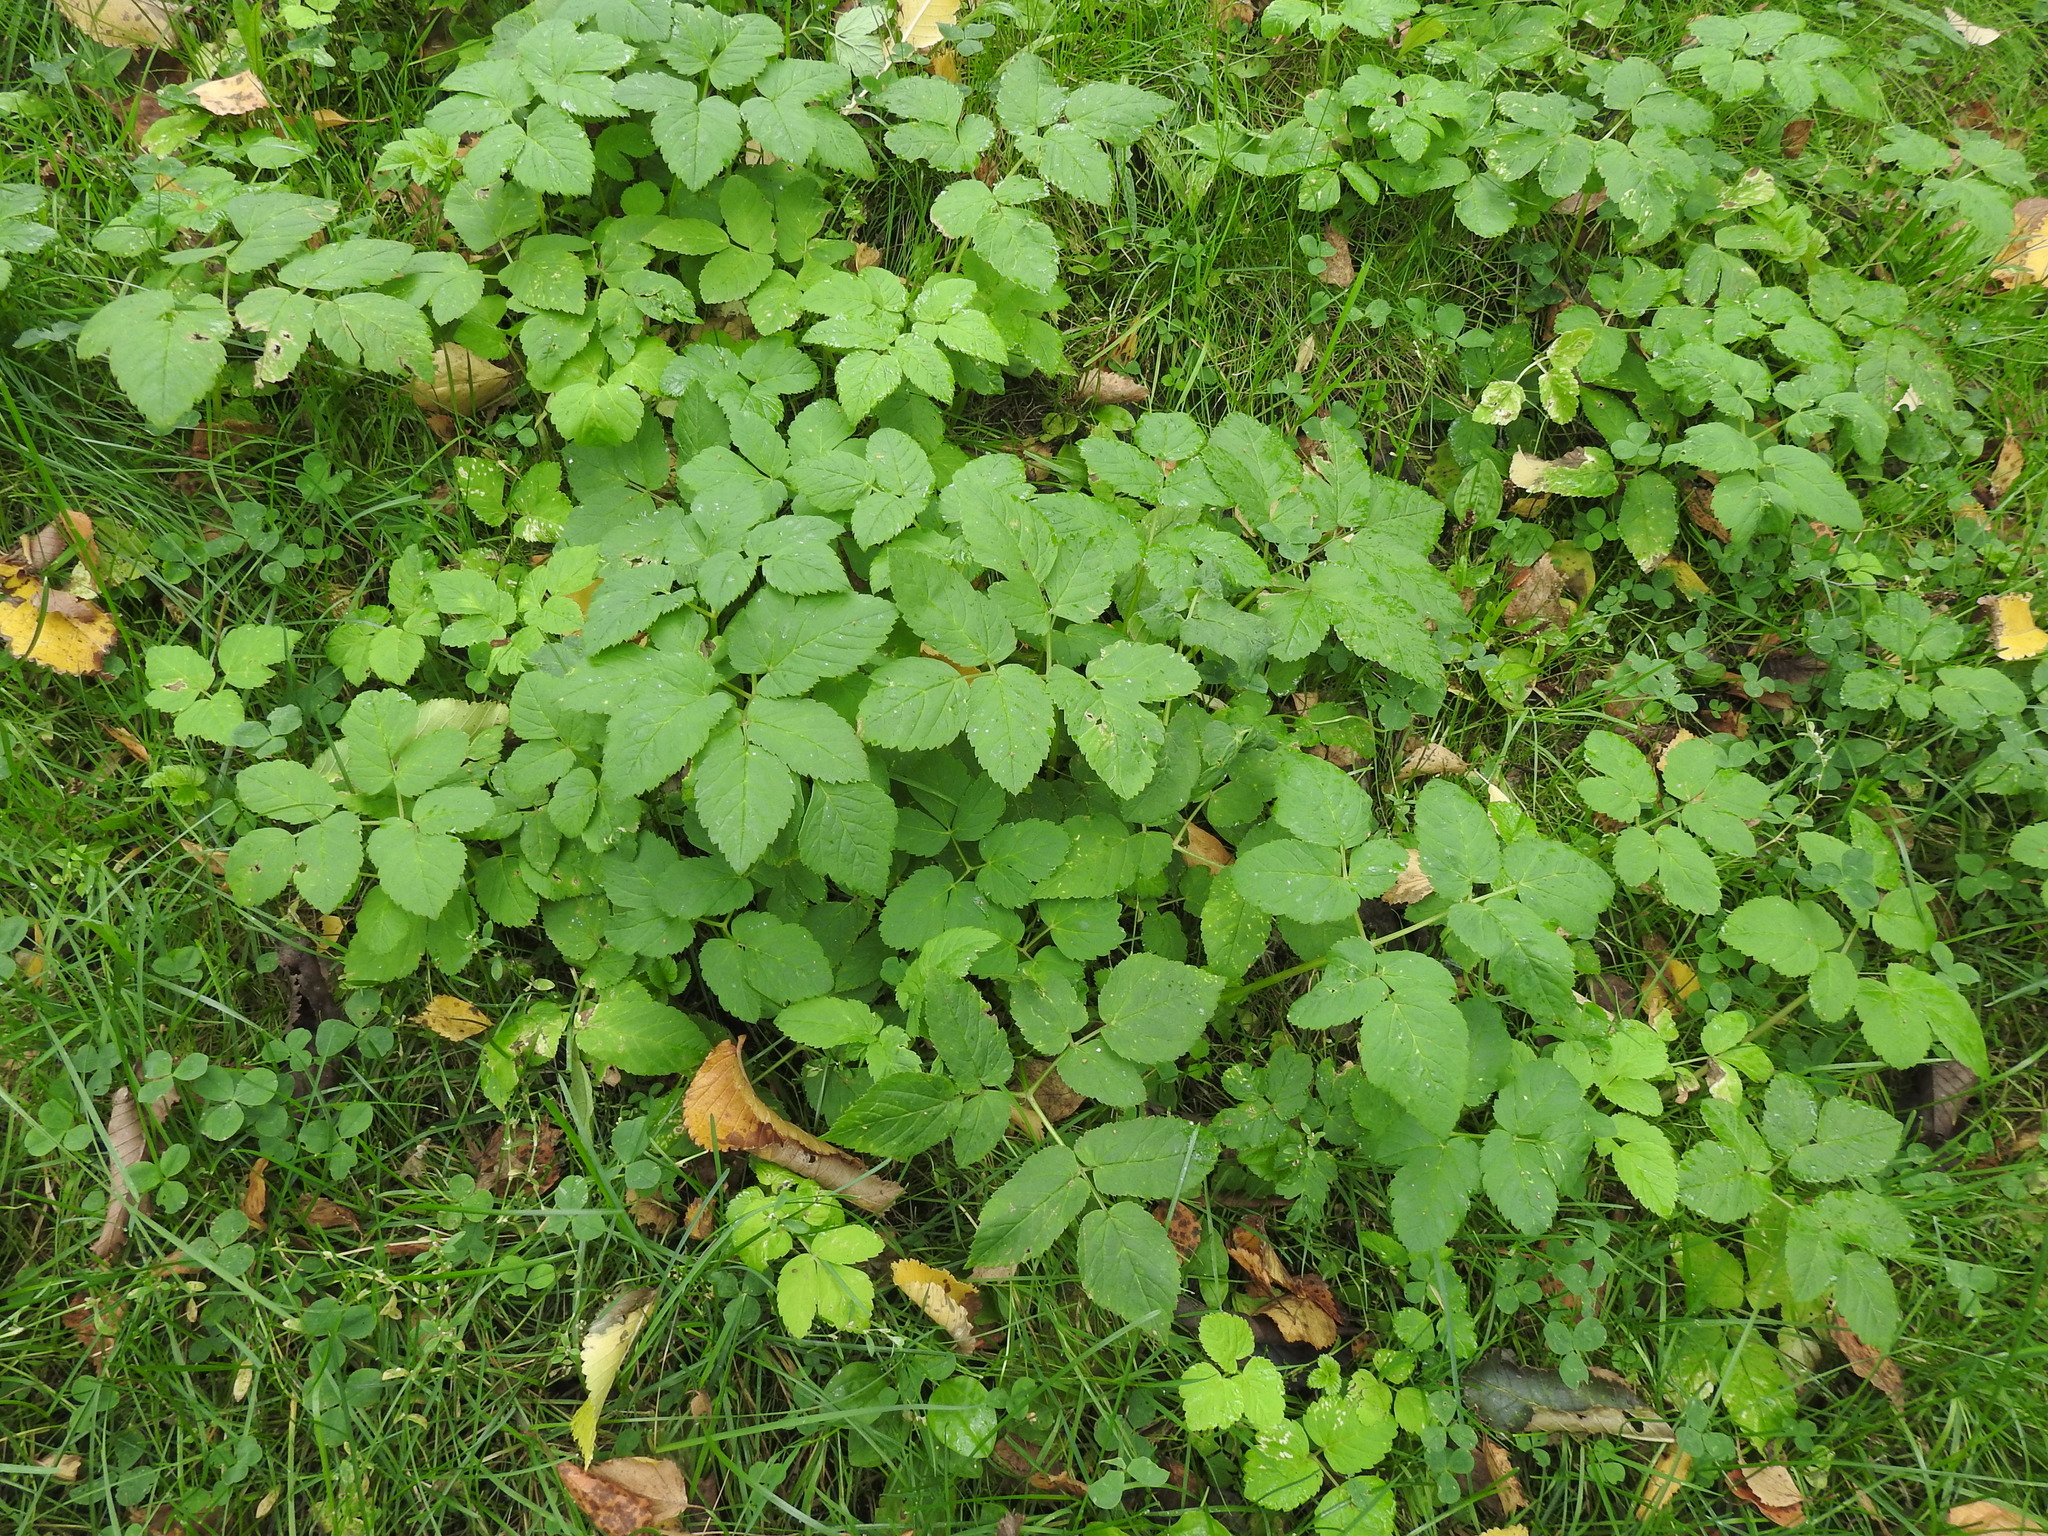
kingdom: Plantae
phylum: Tracheophyta
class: Magnoliopsida
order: Apiales
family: Apiaceae
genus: Aegopodium
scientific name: Aegopodium podagraria
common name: Ground-elder
